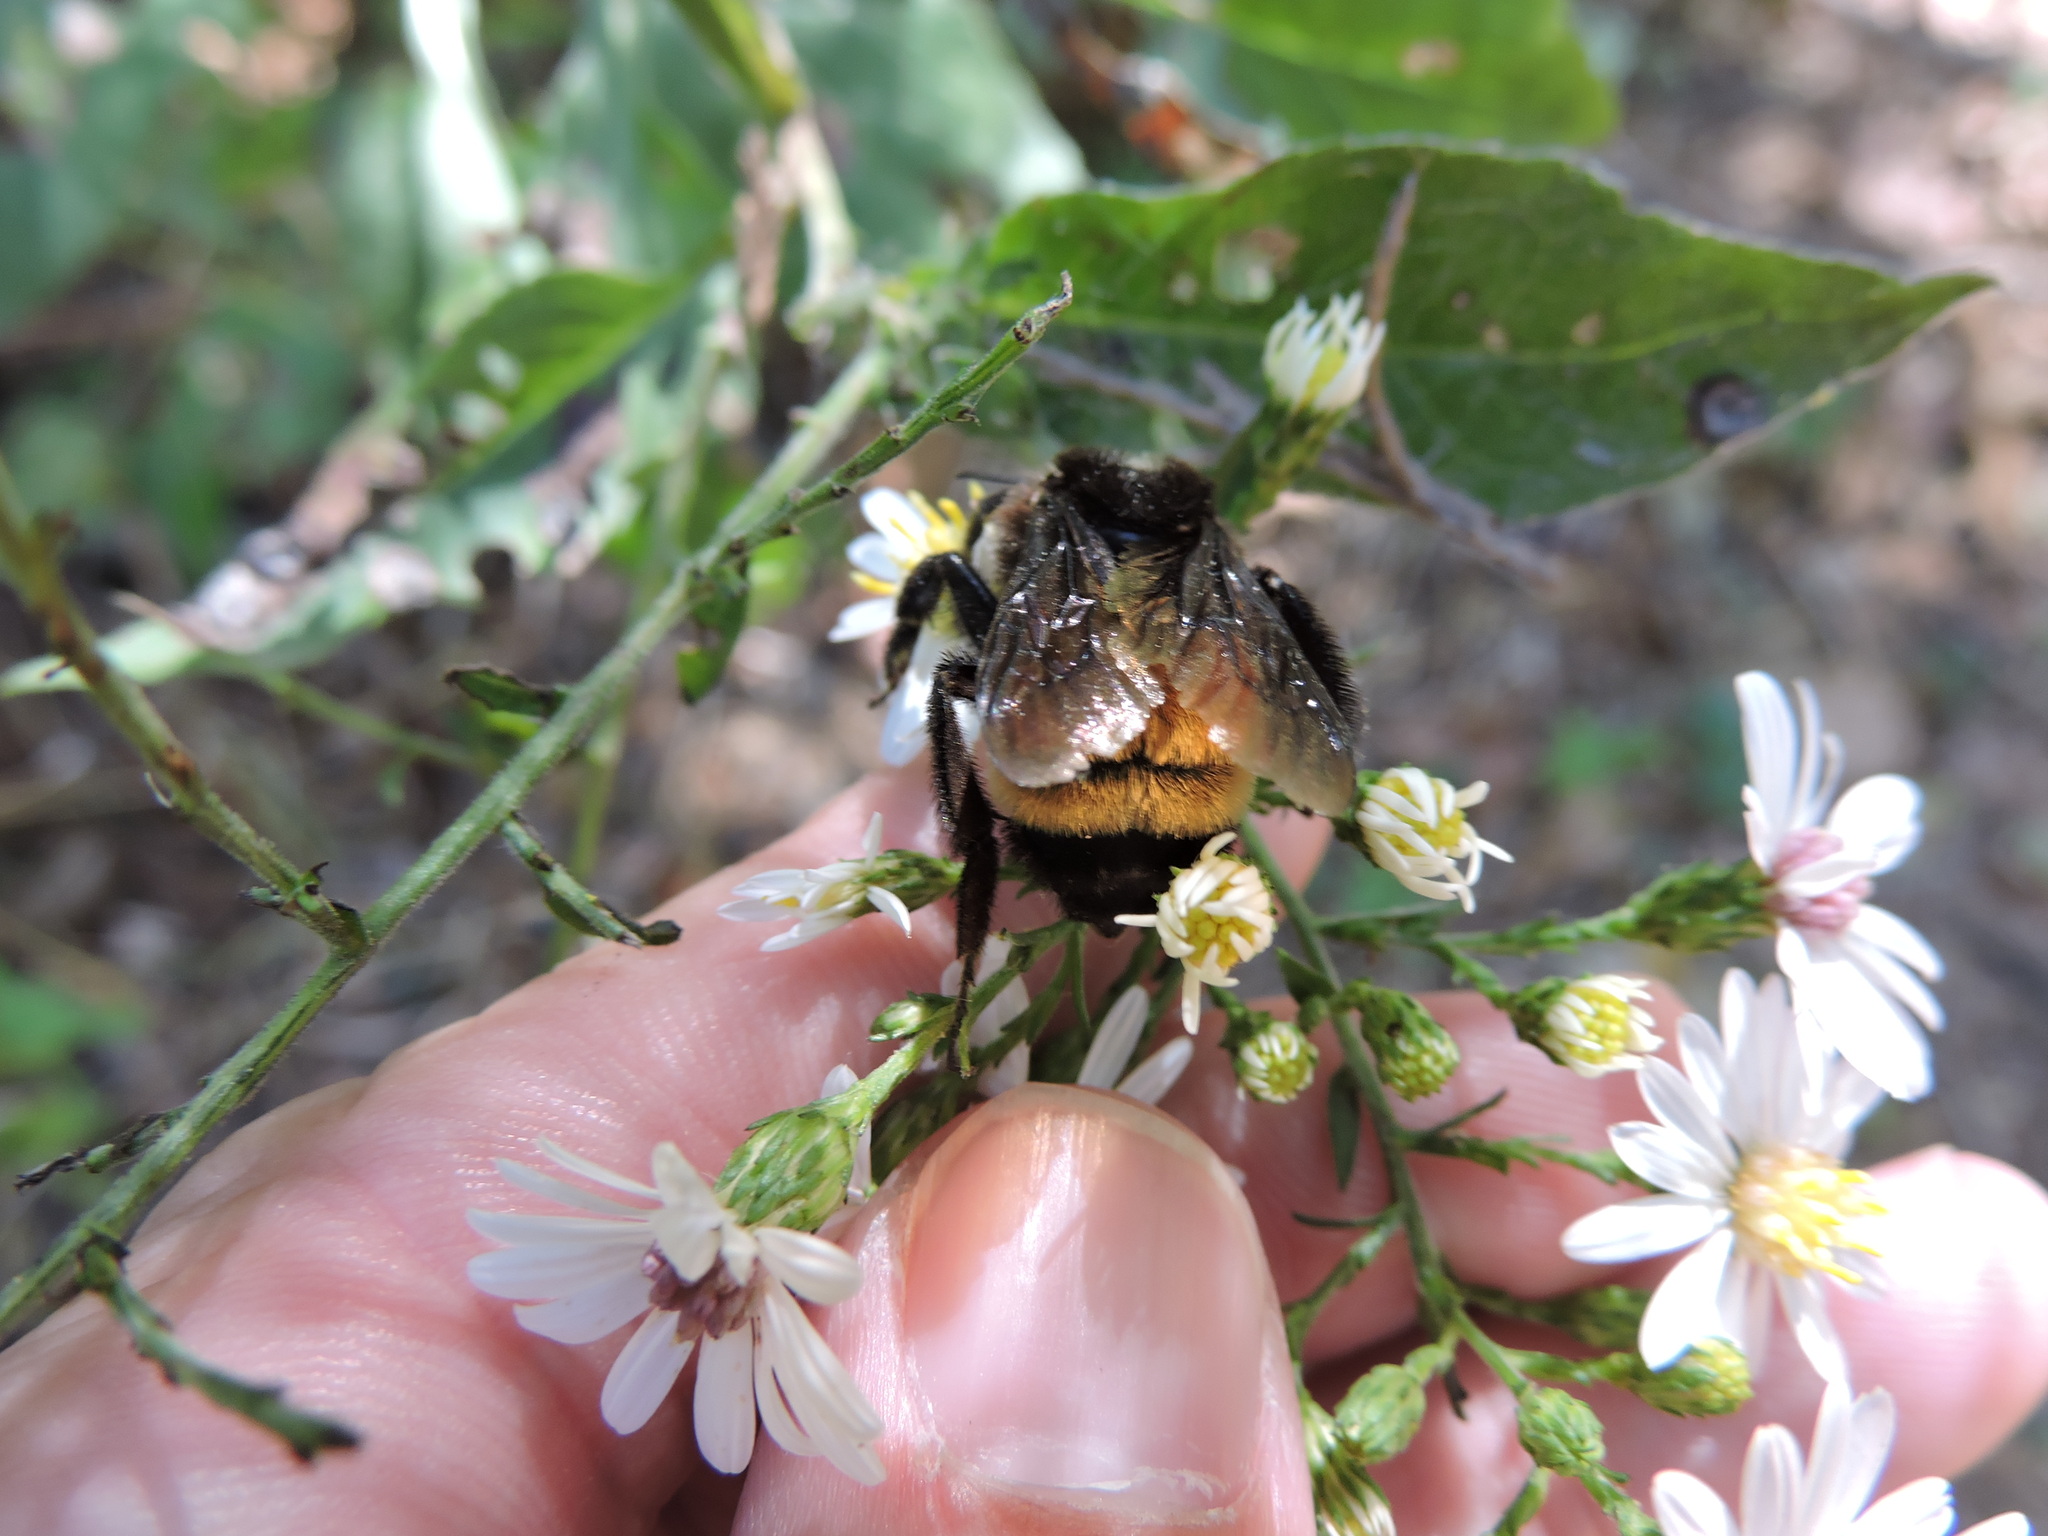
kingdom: Animalia
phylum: Arthropoda
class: Insecta
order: Hymenoptera
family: Apidae
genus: Bombus
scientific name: Bombus pensylvanicus
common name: Bumble bee
